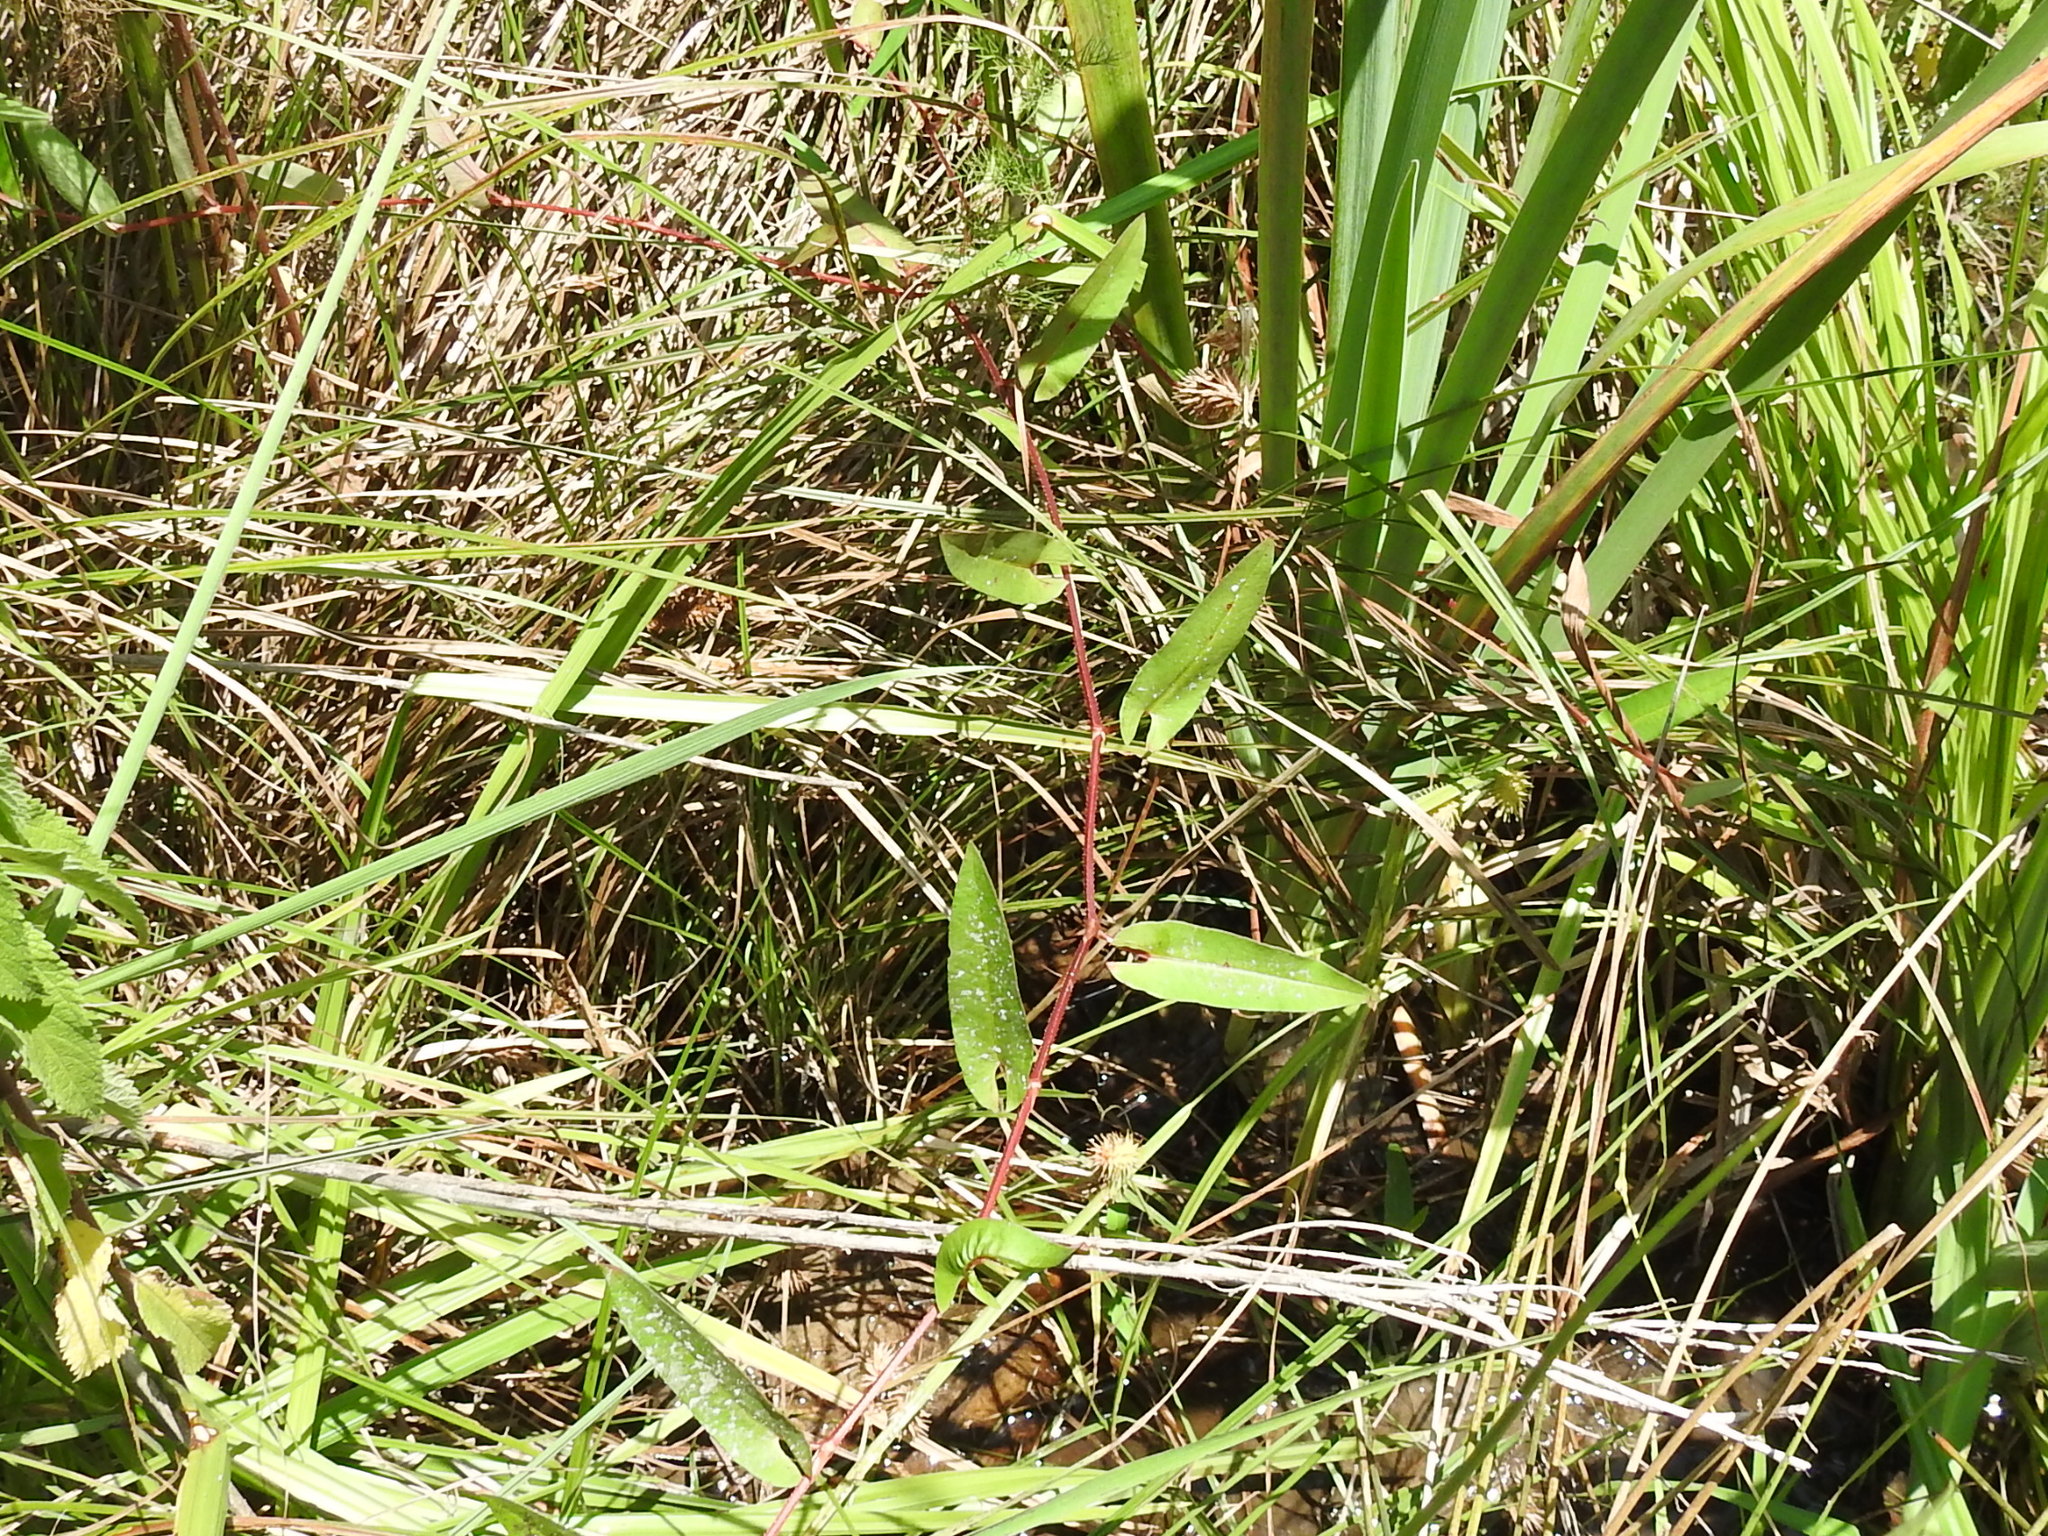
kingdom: Plantae
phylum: Tracheophyta
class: Magnoliopsida
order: Caryophyllales
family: Polygonaceae
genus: Persicaria
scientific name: Persicaria sagittata
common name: American tearthumb
